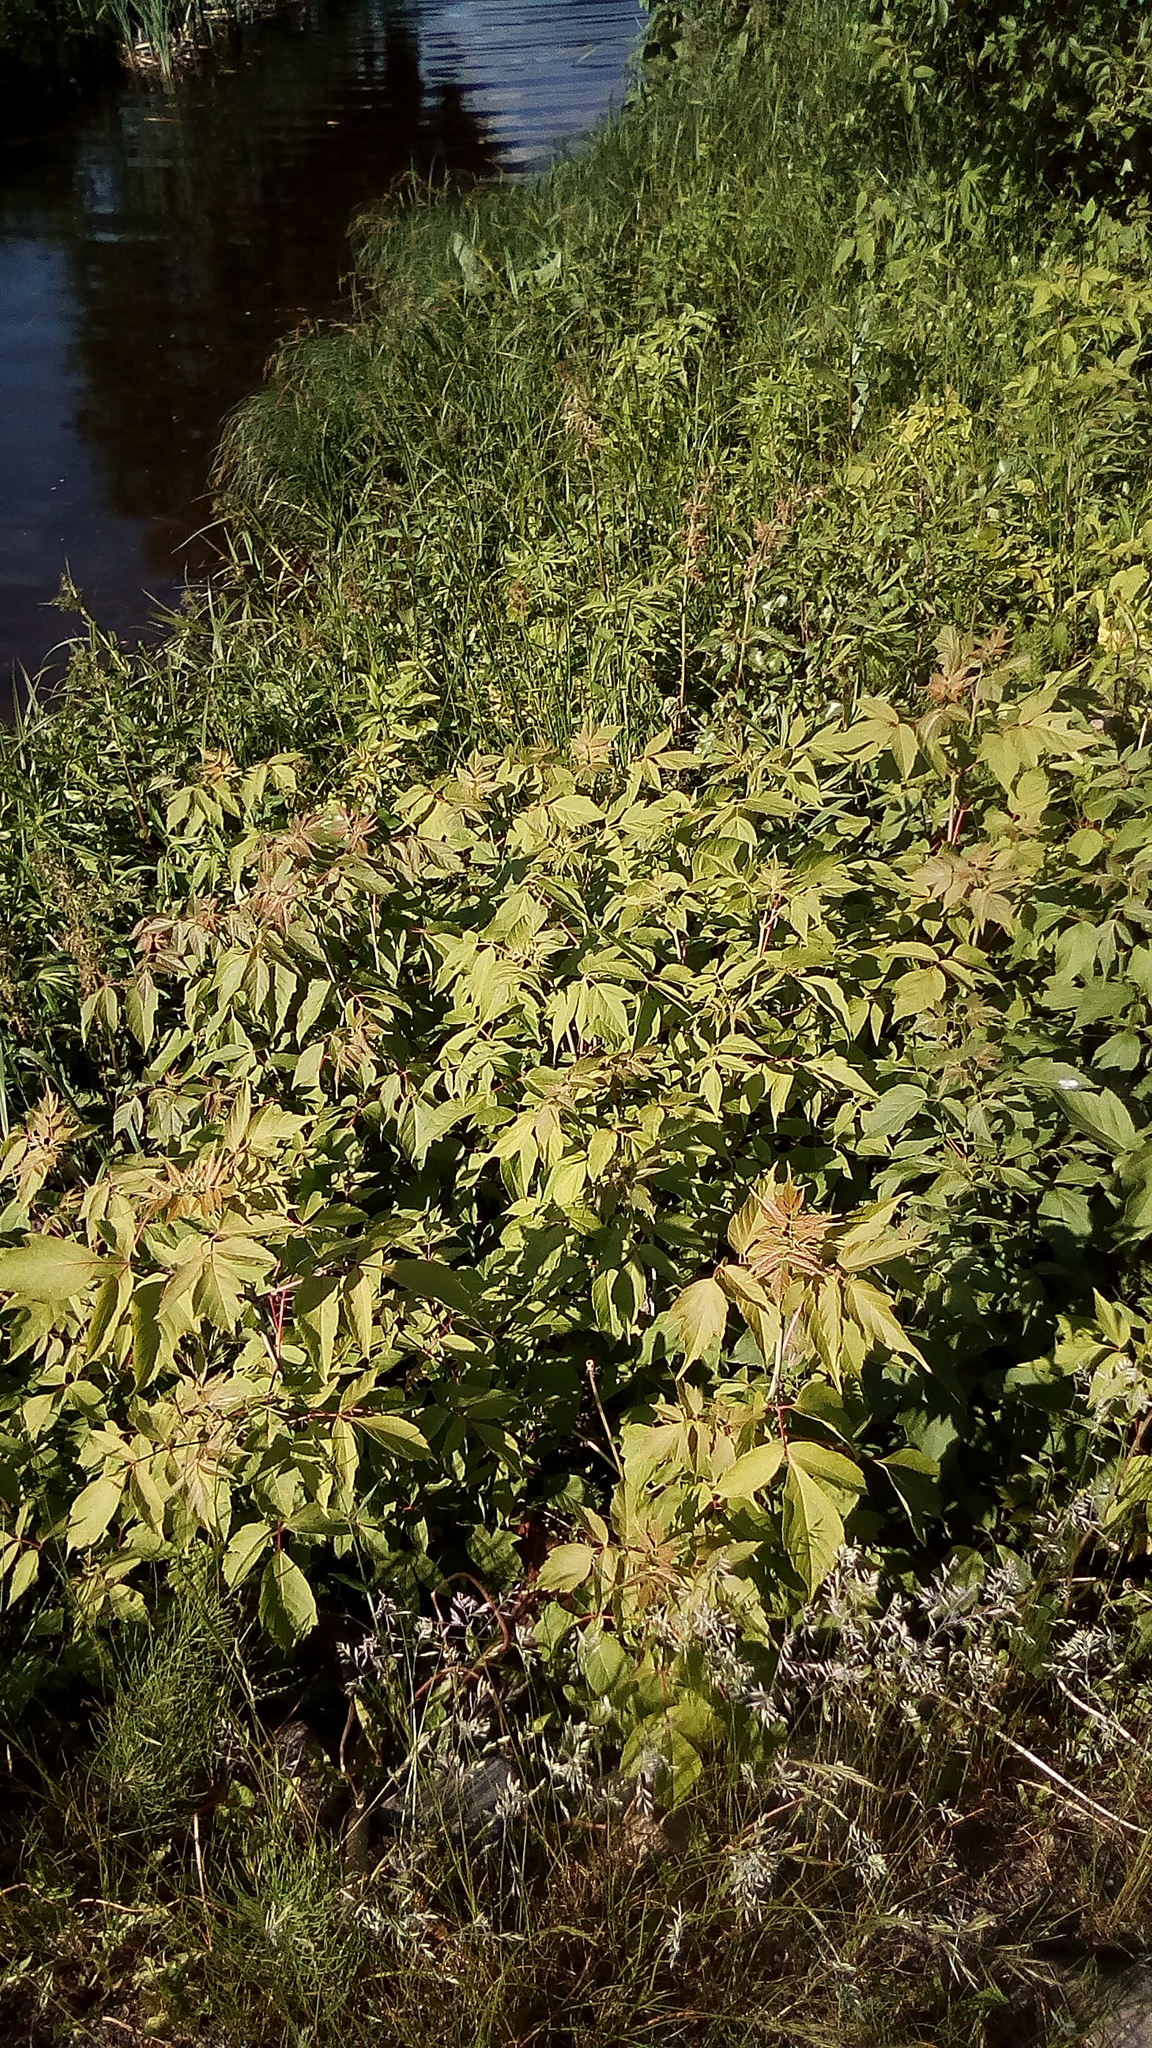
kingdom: Plantae
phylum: Tracheophyta
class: Magnoliopsida
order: Sapindales
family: Sapindaceae
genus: Acer
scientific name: Acer negundo
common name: Ashleaf maple
